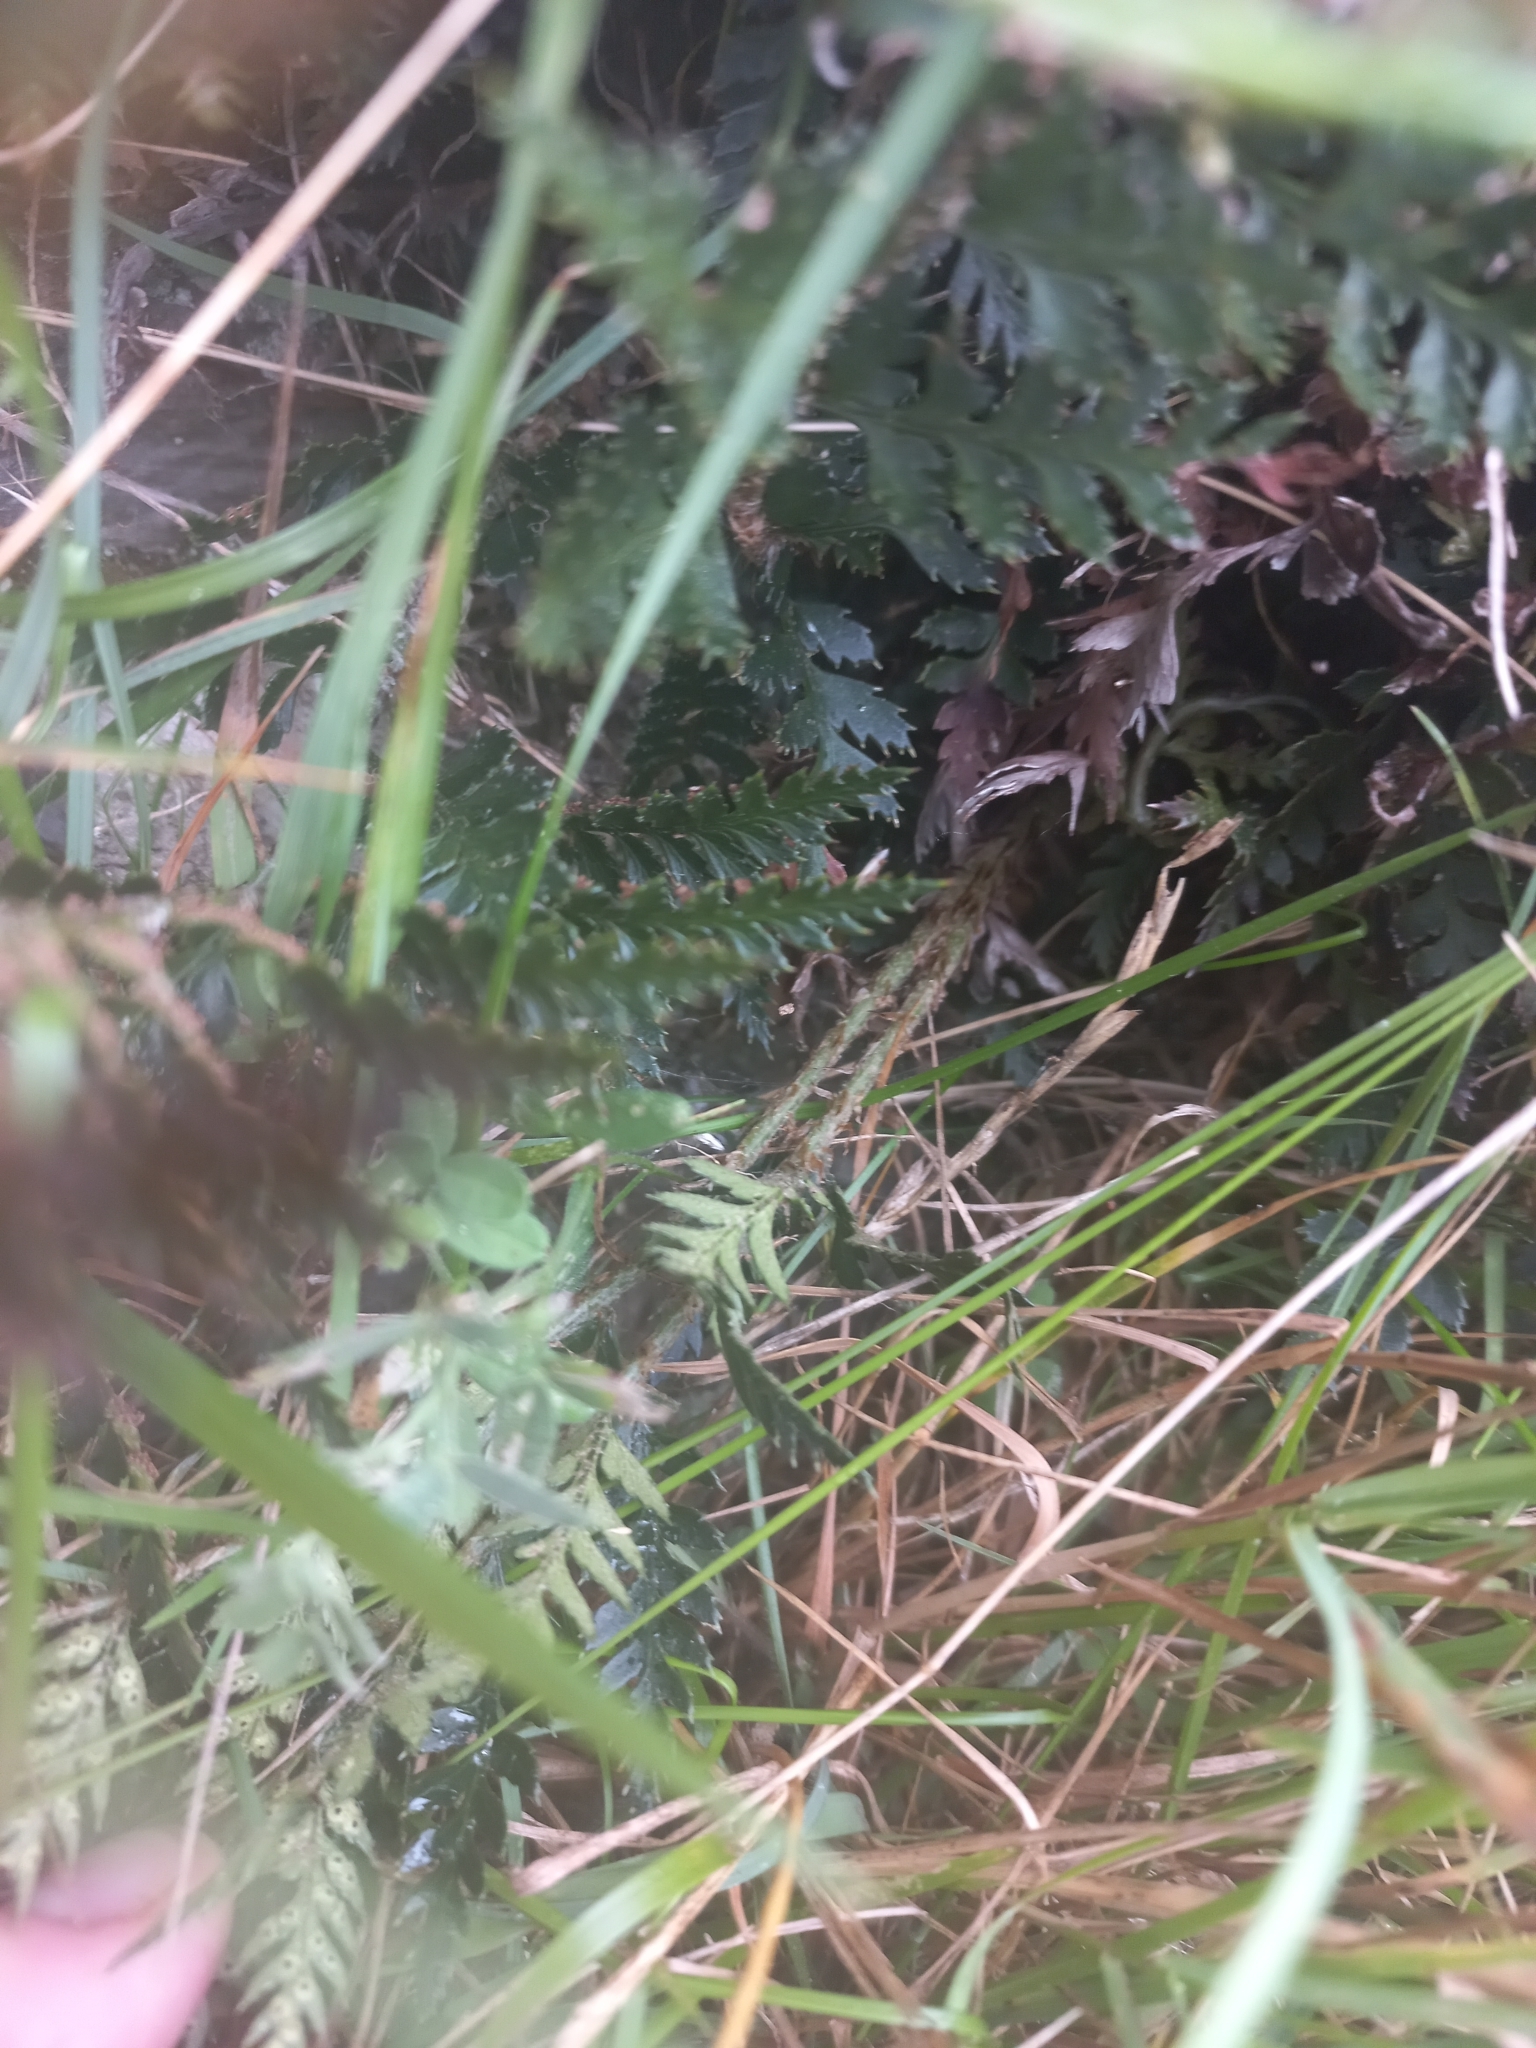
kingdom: Plantae
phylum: Tracheophyta
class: Polypodiopsida
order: Polypodiales
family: Dryopteridaceae
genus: Polystichum
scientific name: Polystichum oculatum
